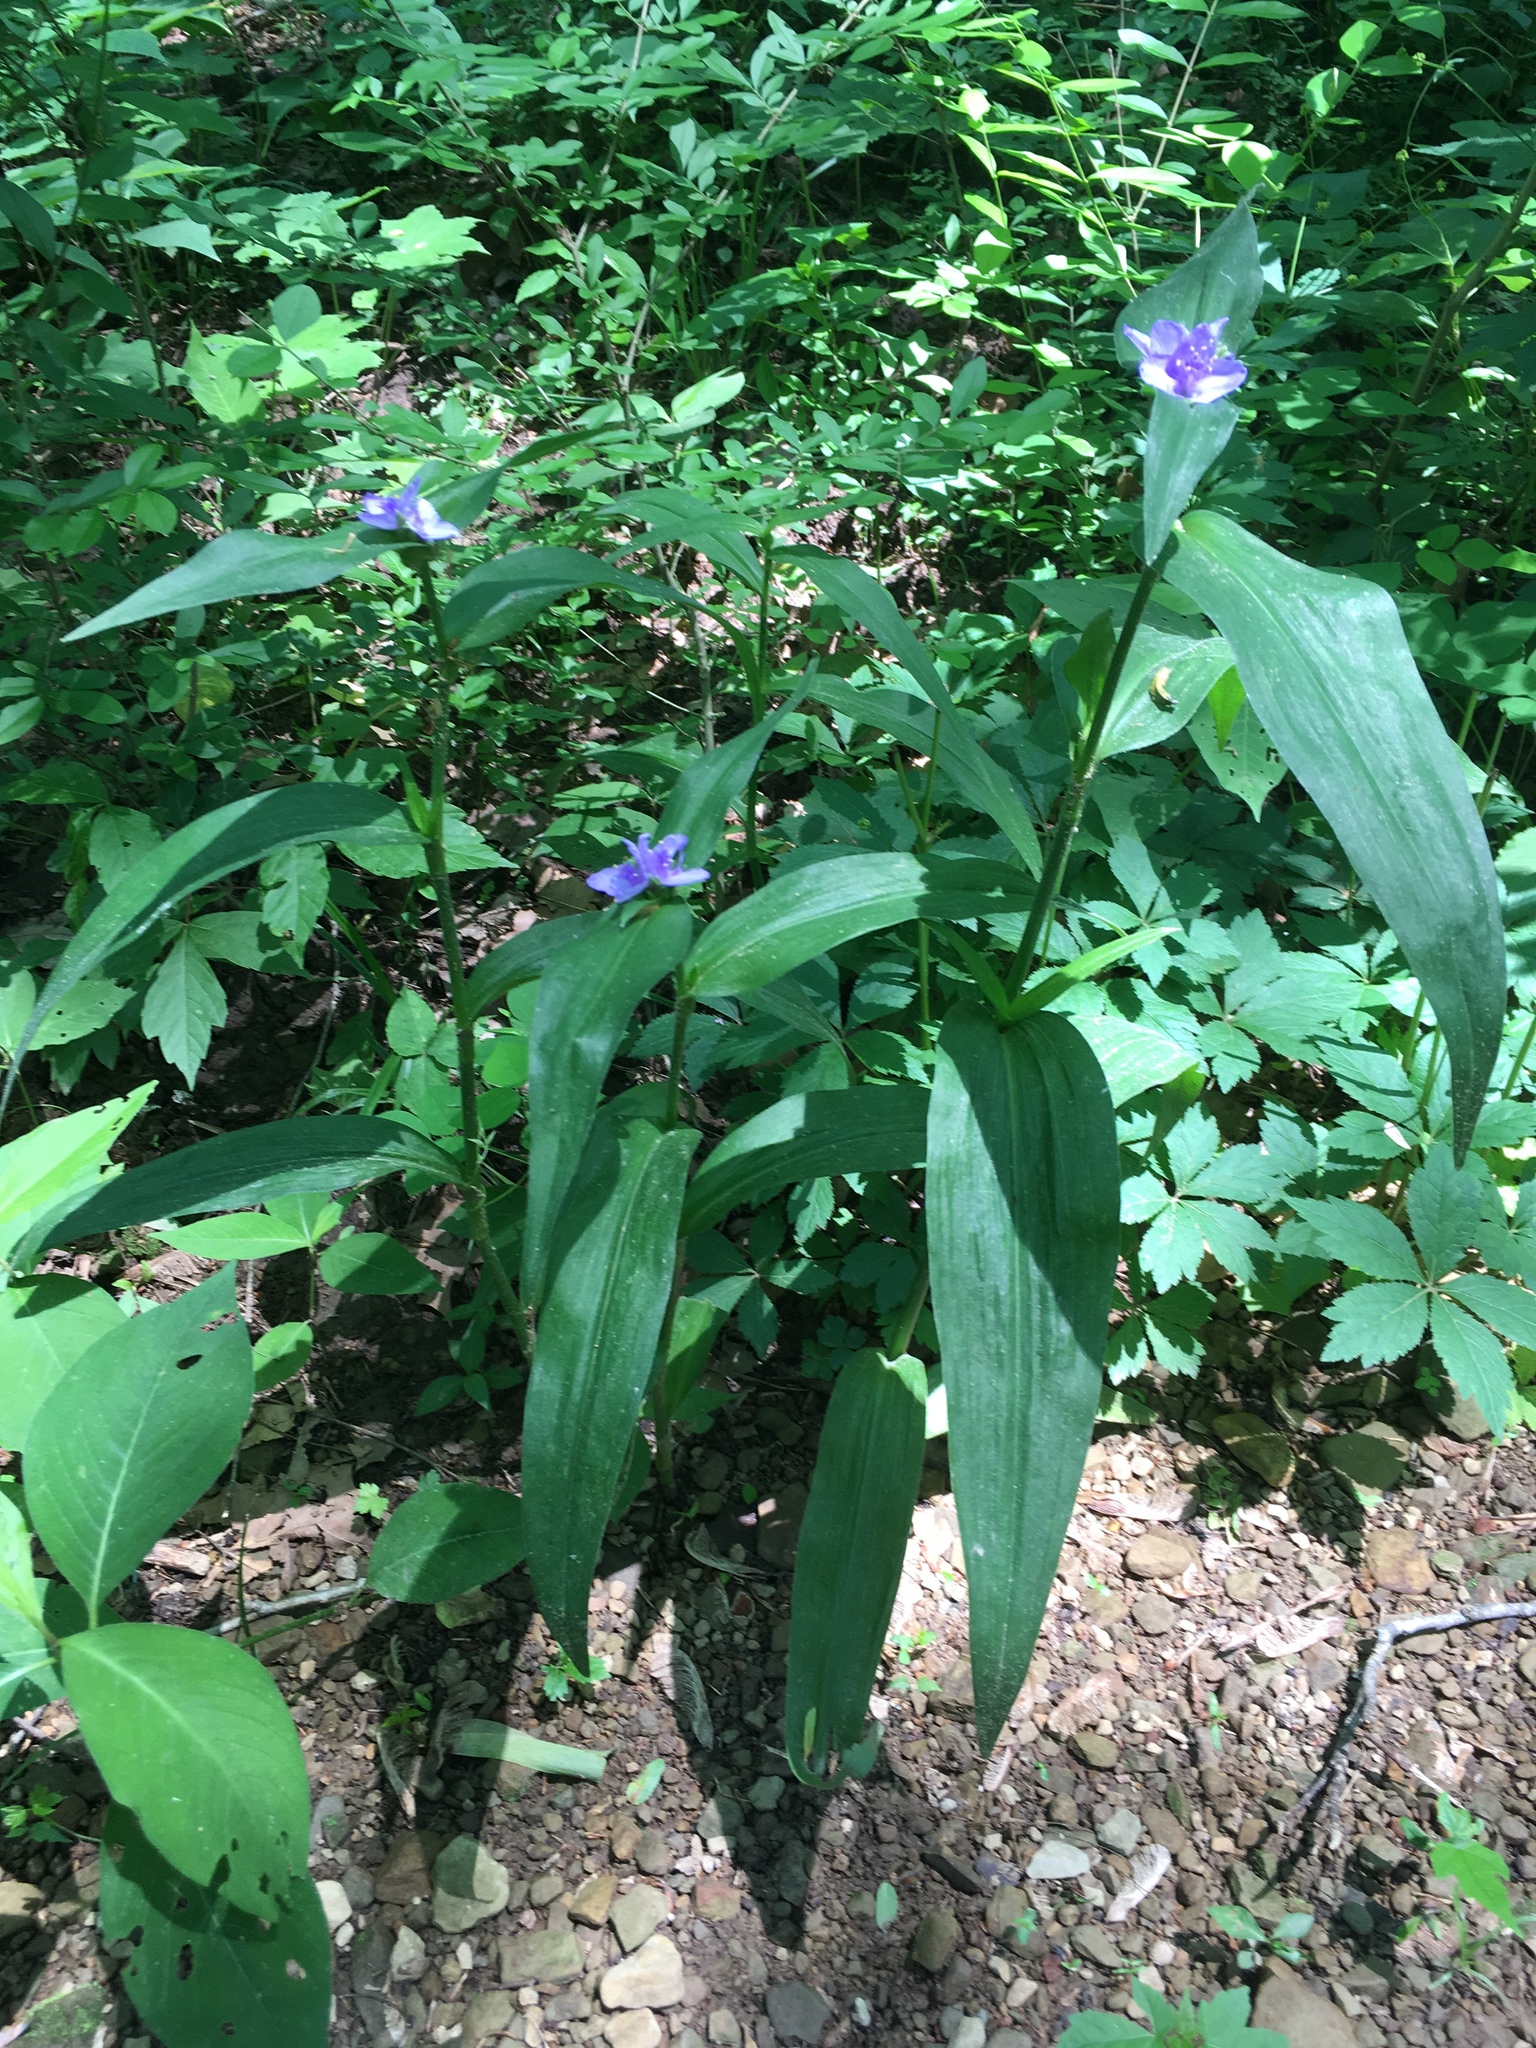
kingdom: Plantae
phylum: Tracheophyta
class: Liliopsida
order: Commelinales
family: Commelinaceae
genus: Tradescantia
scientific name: Tradescantia subaspera
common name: Wide-leaf spiderwort
